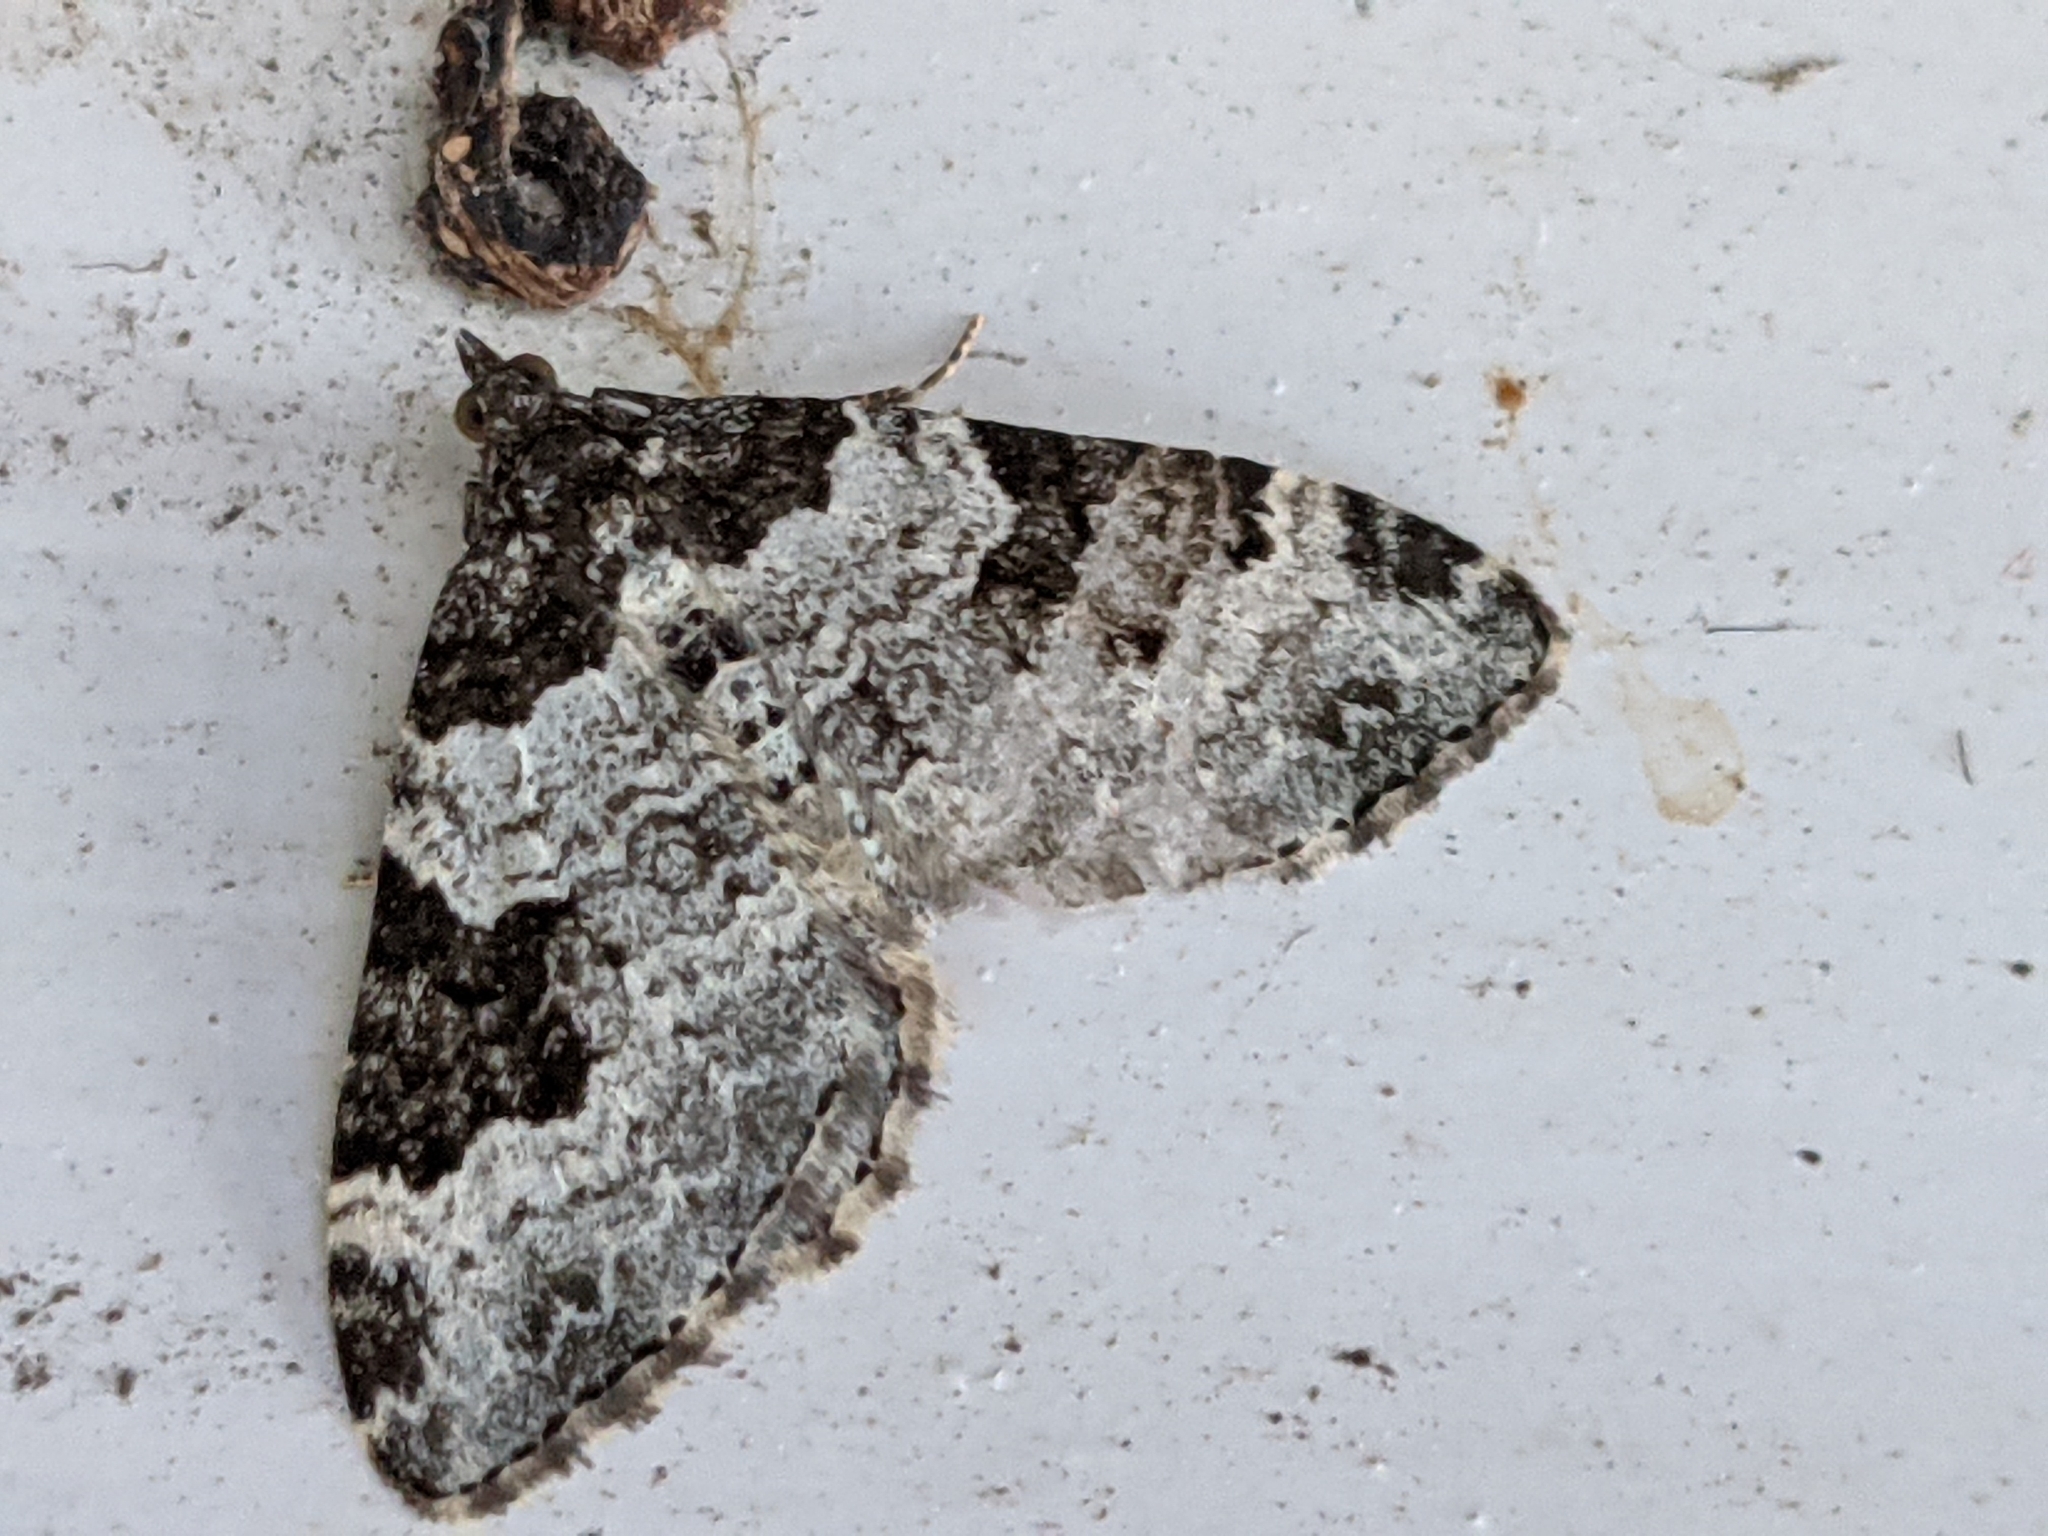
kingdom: Animalia
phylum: Arthropoda
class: Insecta
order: Lepidoptera
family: Geometridae
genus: Xanthorhoe
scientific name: Xanthorhoe fluctuata
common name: Garden carpet
